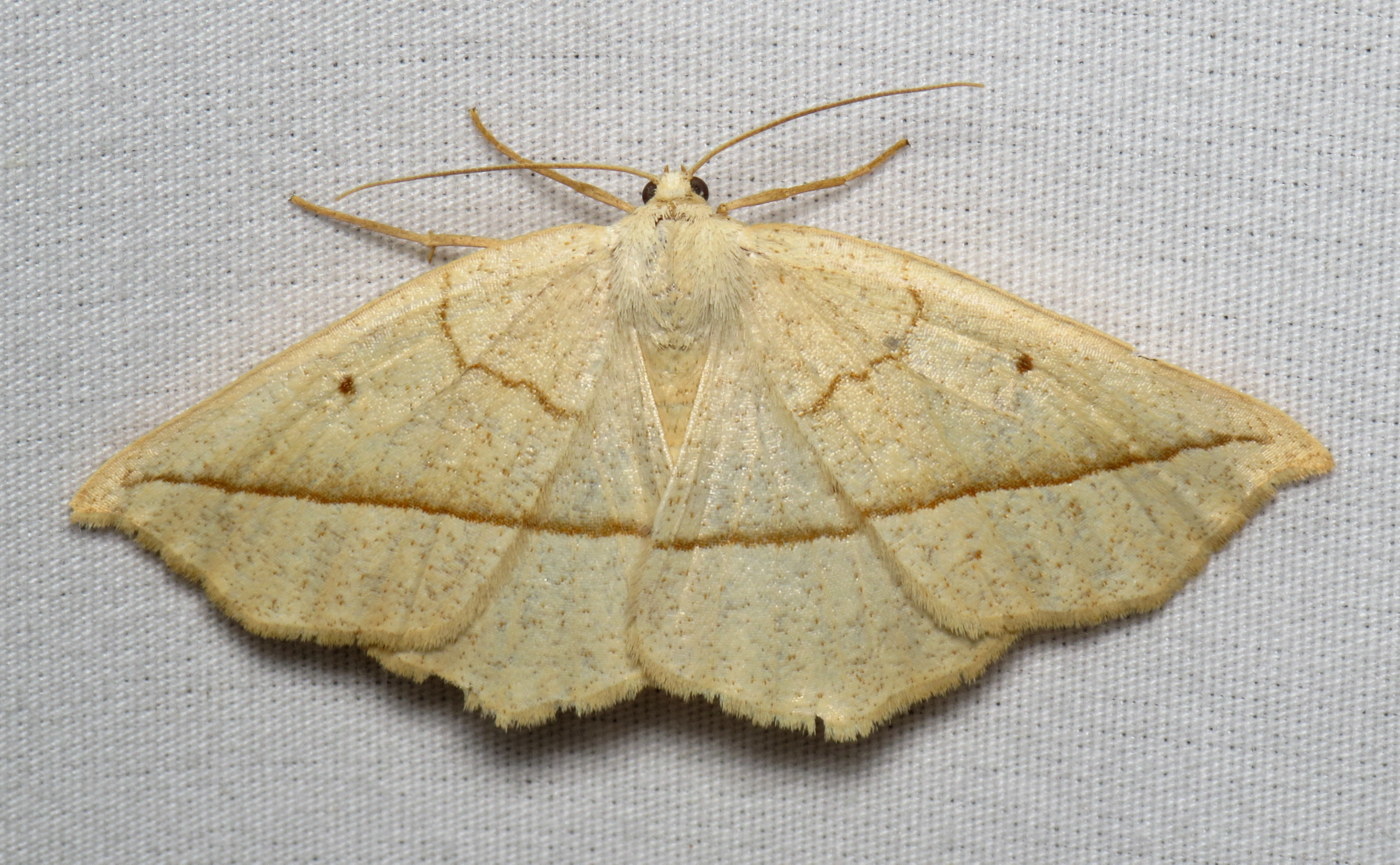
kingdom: Animalia
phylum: Arthropoda
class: Insecta
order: Lepidoptera
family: Geometridae
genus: Eusarca
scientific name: Eusarca confusaria
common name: Confused eusarca
